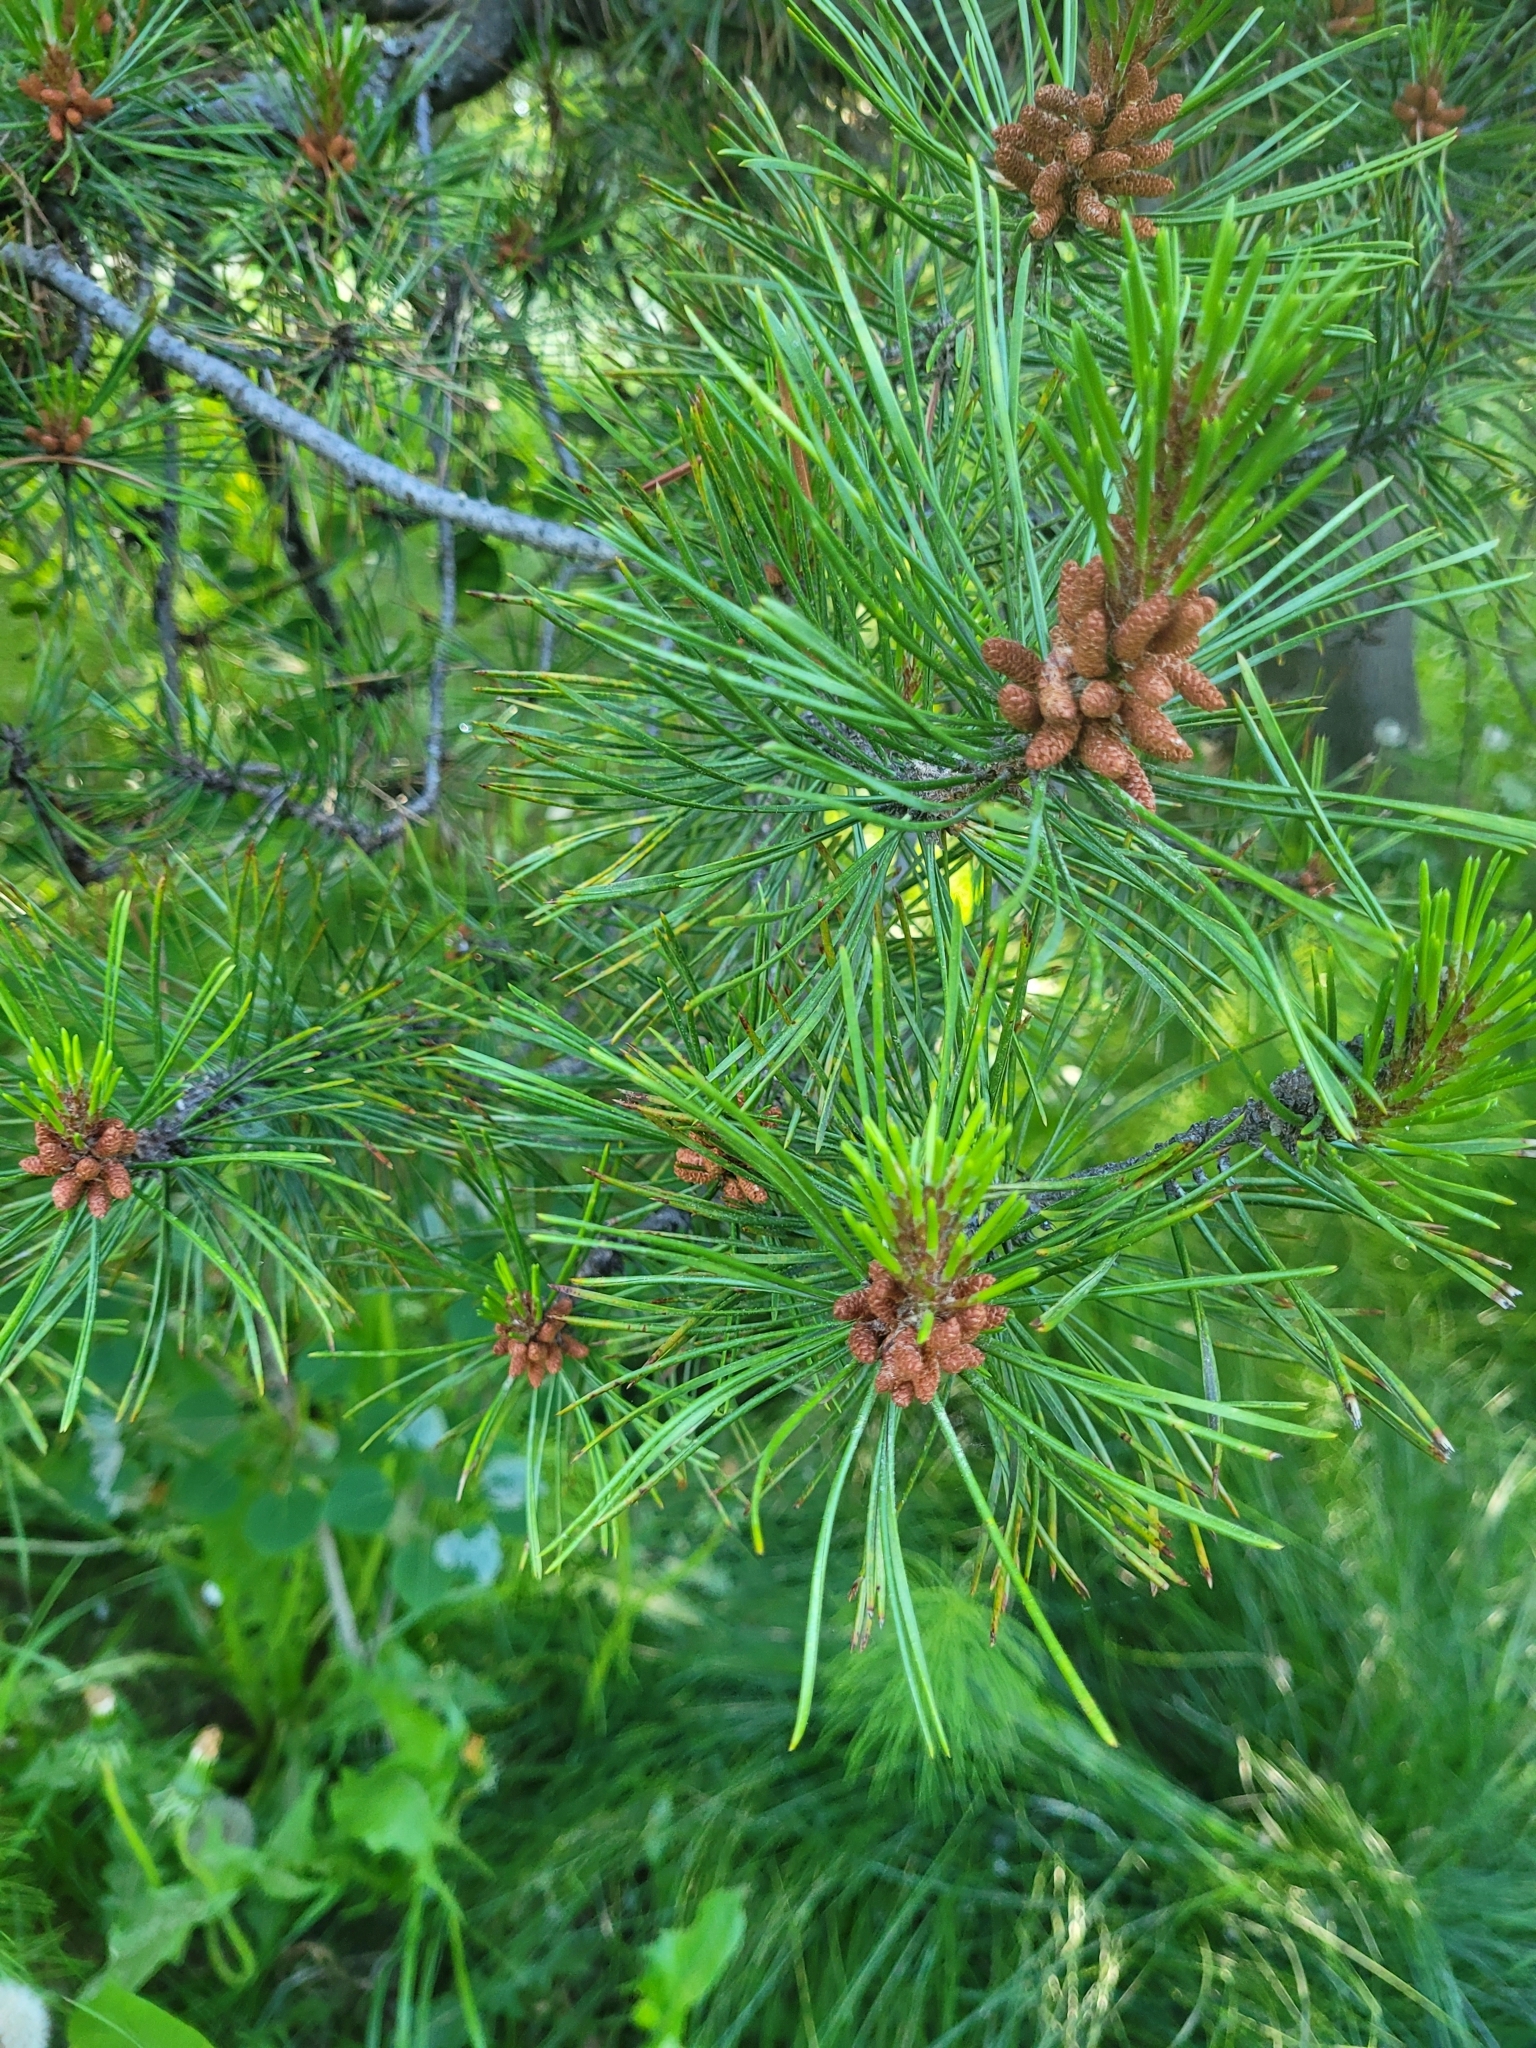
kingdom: Plantae
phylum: Tracheophyta
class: Pinopsida
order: Pinales
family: Pinaceae
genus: Pinus
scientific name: Pinus contorta
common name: Lodgepole pine
